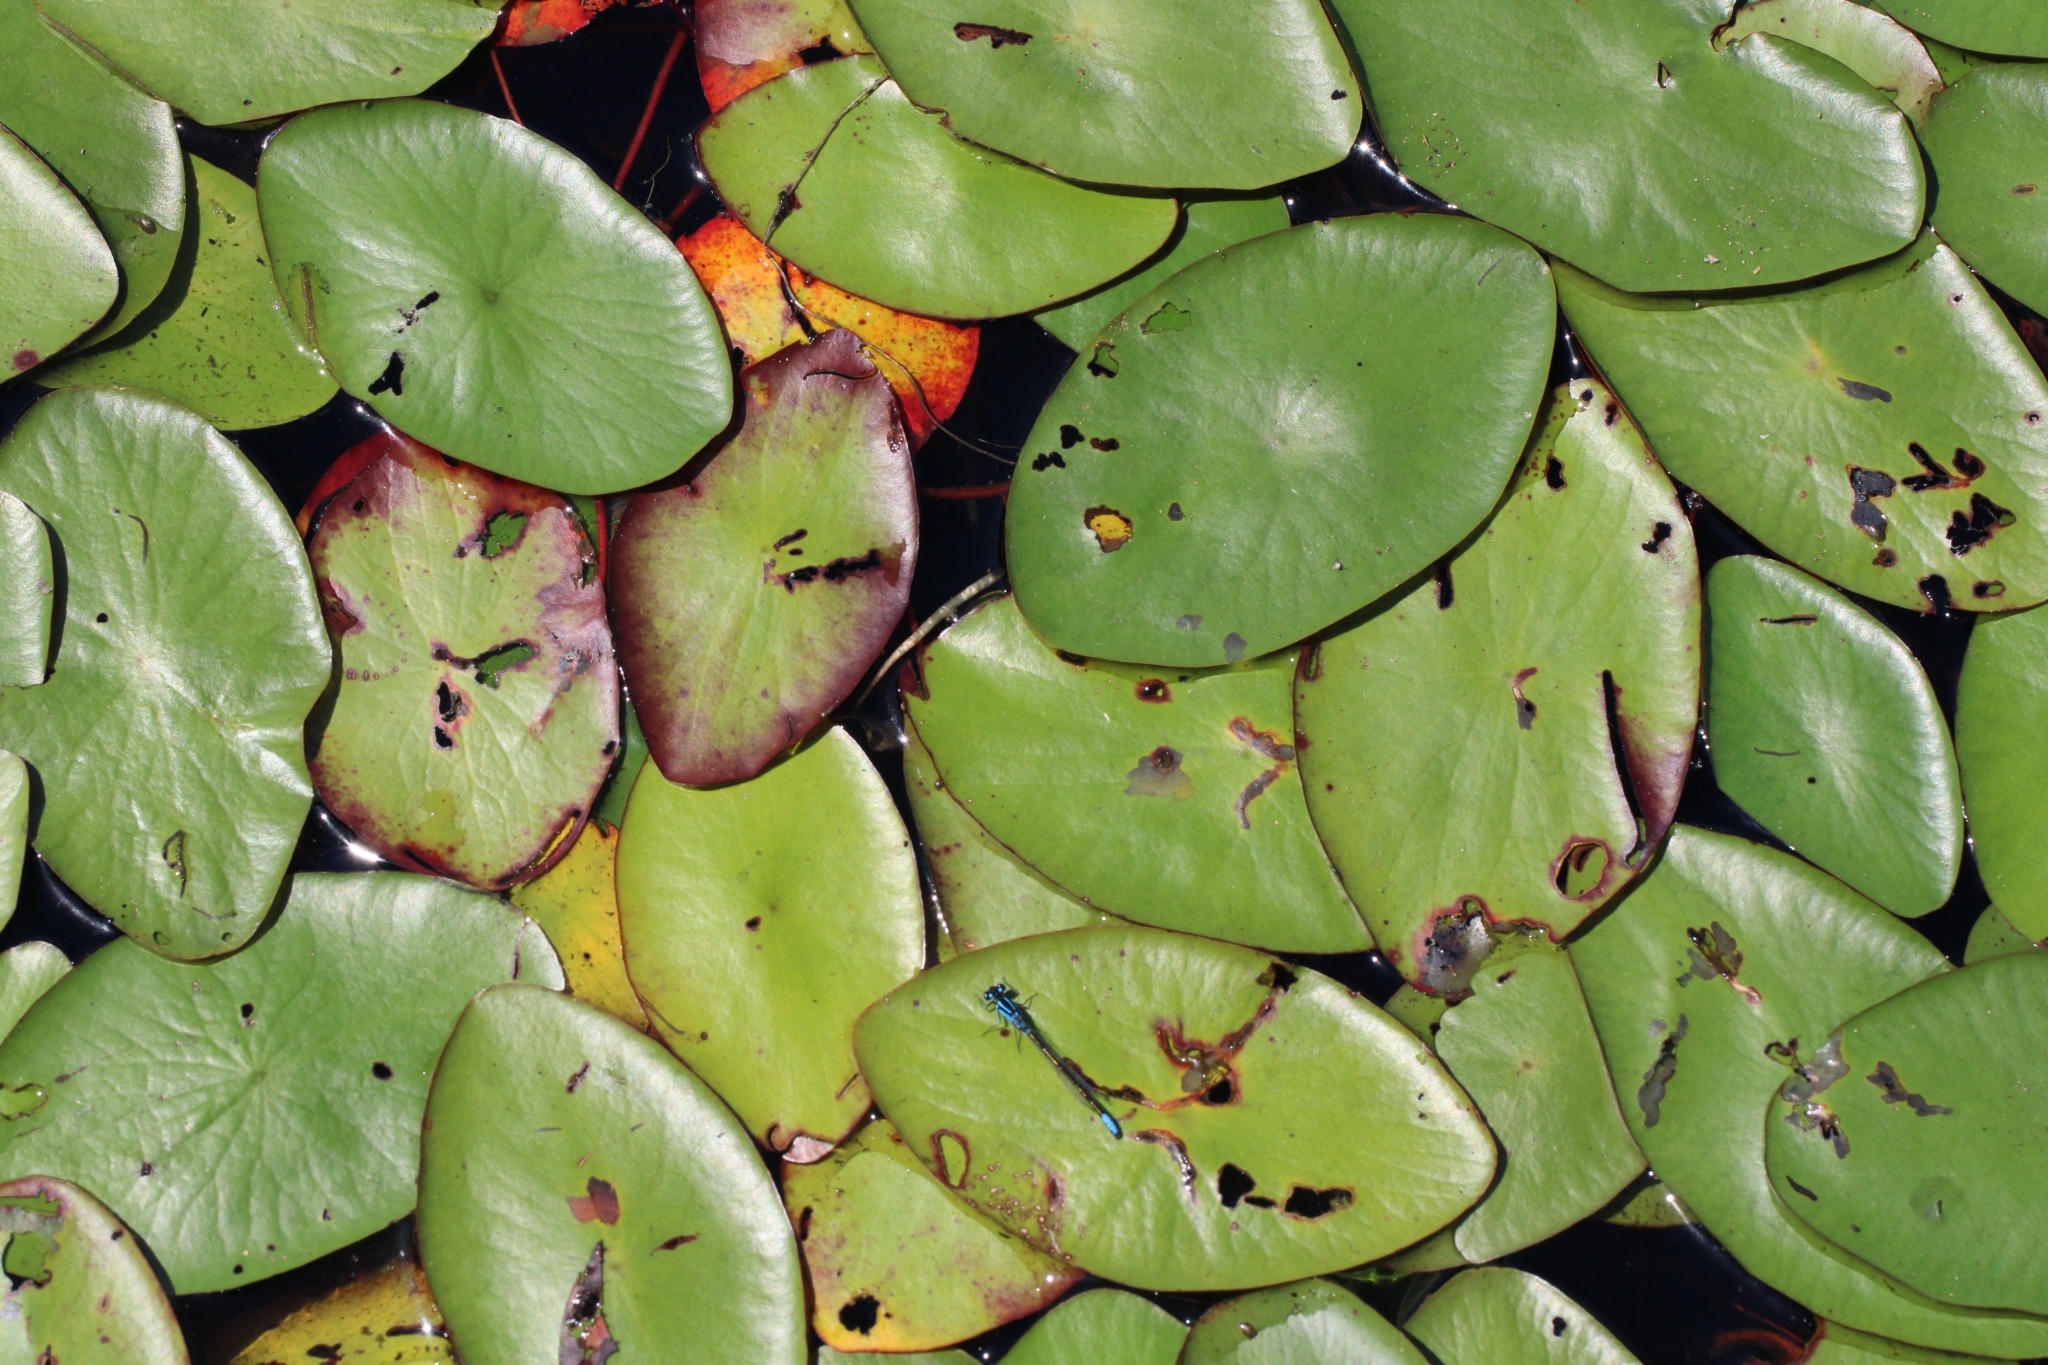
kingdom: Plantae
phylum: Tracheophyta
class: Magnoliopsida
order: Nymphaeales
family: Cabombaceae
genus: Brasenia
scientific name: Brasenia schreberi
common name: Water-shield
